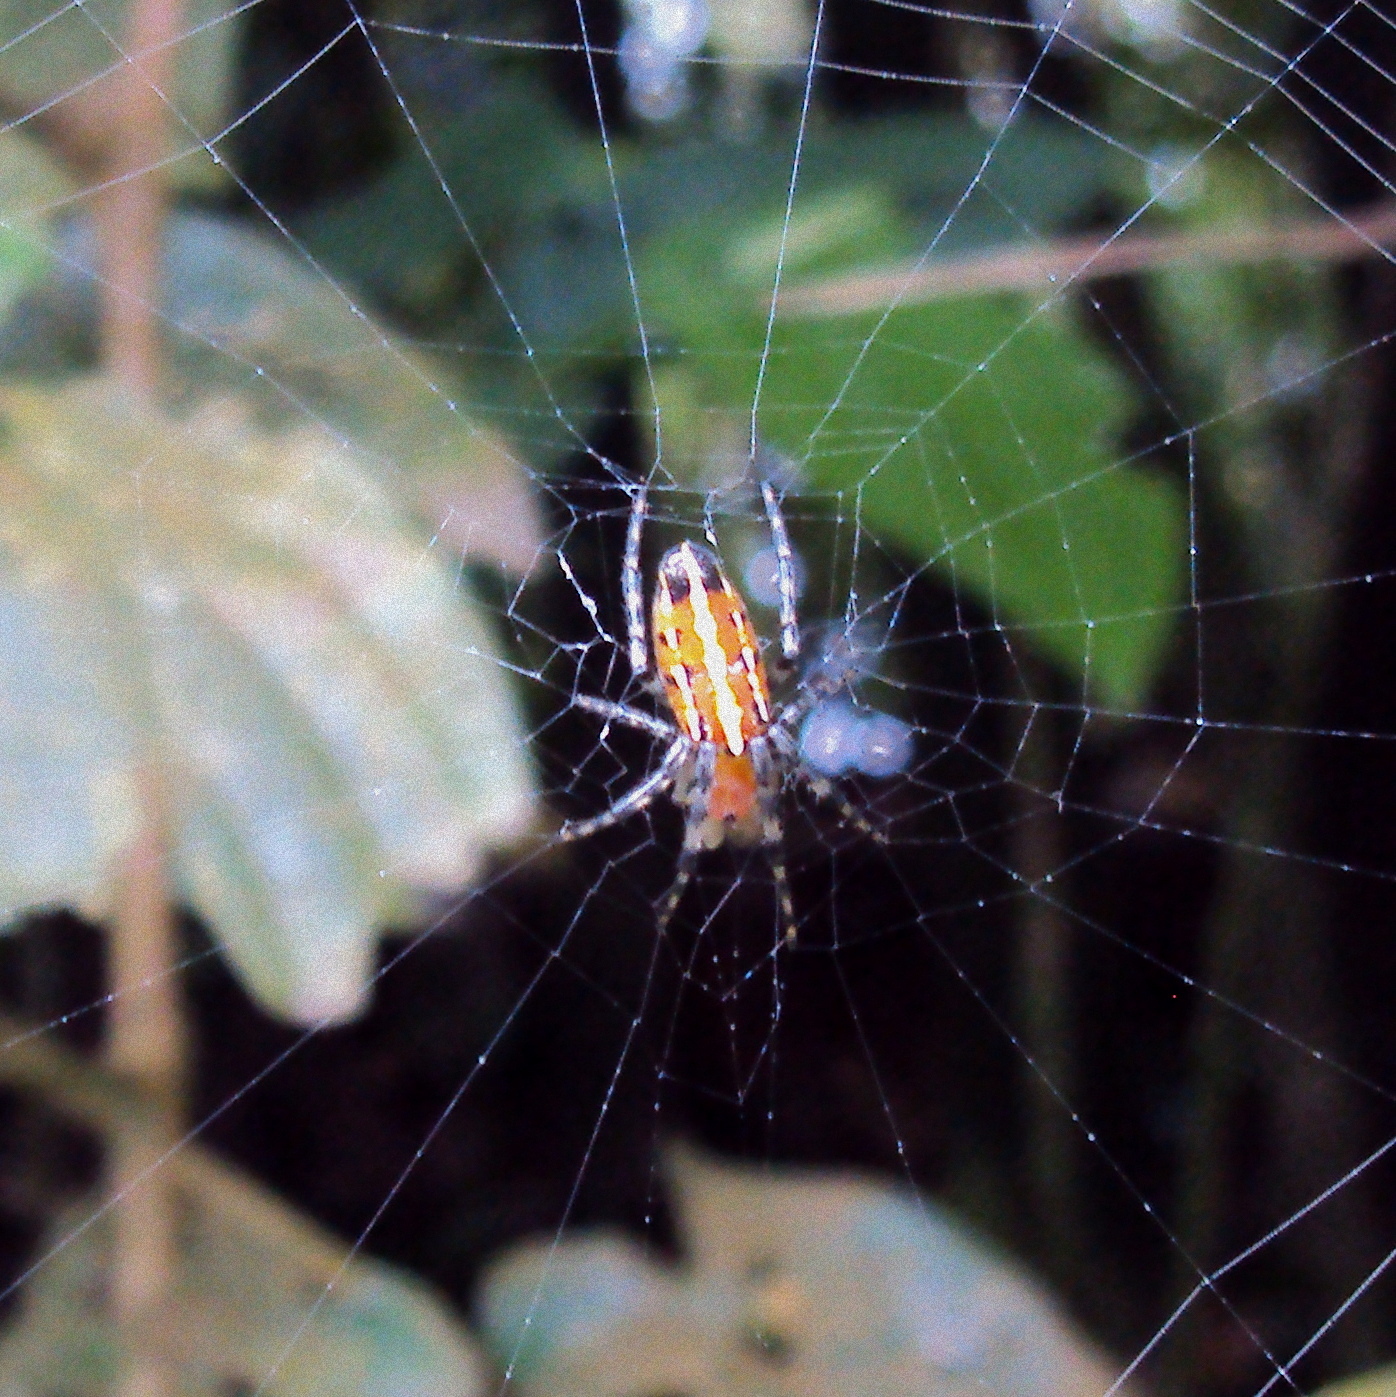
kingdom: Animalia
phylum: Arthropoda
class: Arachnida
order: Araneae
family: Araneidae
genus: Alpaida
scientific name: Alpaida grayi
